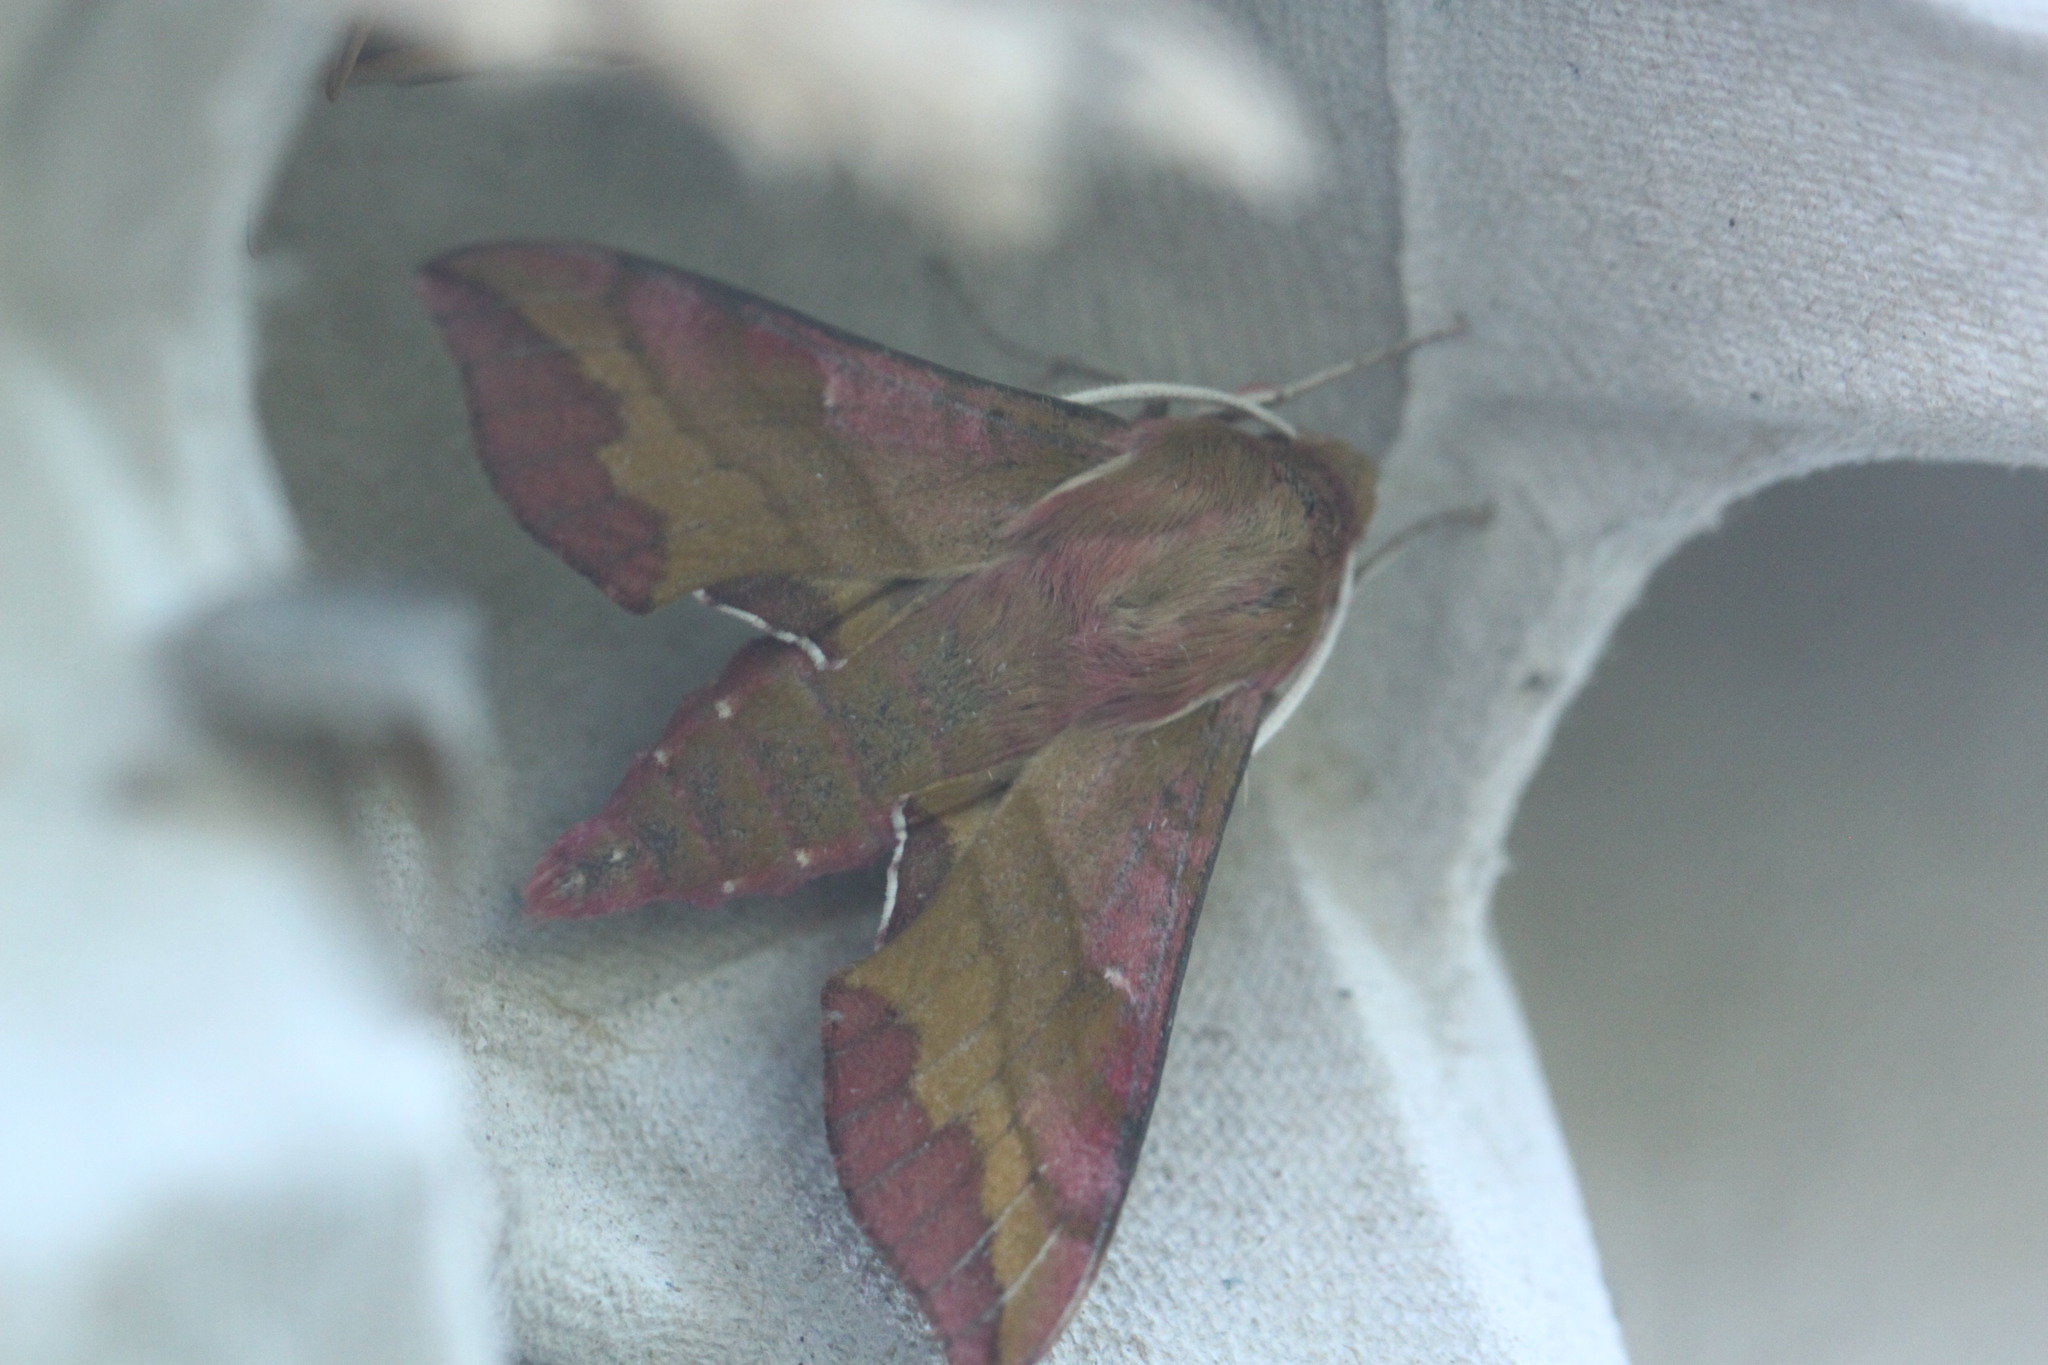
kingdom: Animalia
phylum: Arthropoda
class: Insecta
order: Lepidoptera
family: Sphingidae
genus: Deilephila
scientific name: Deilephila porcellus
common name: Small elephant hawk-moth
